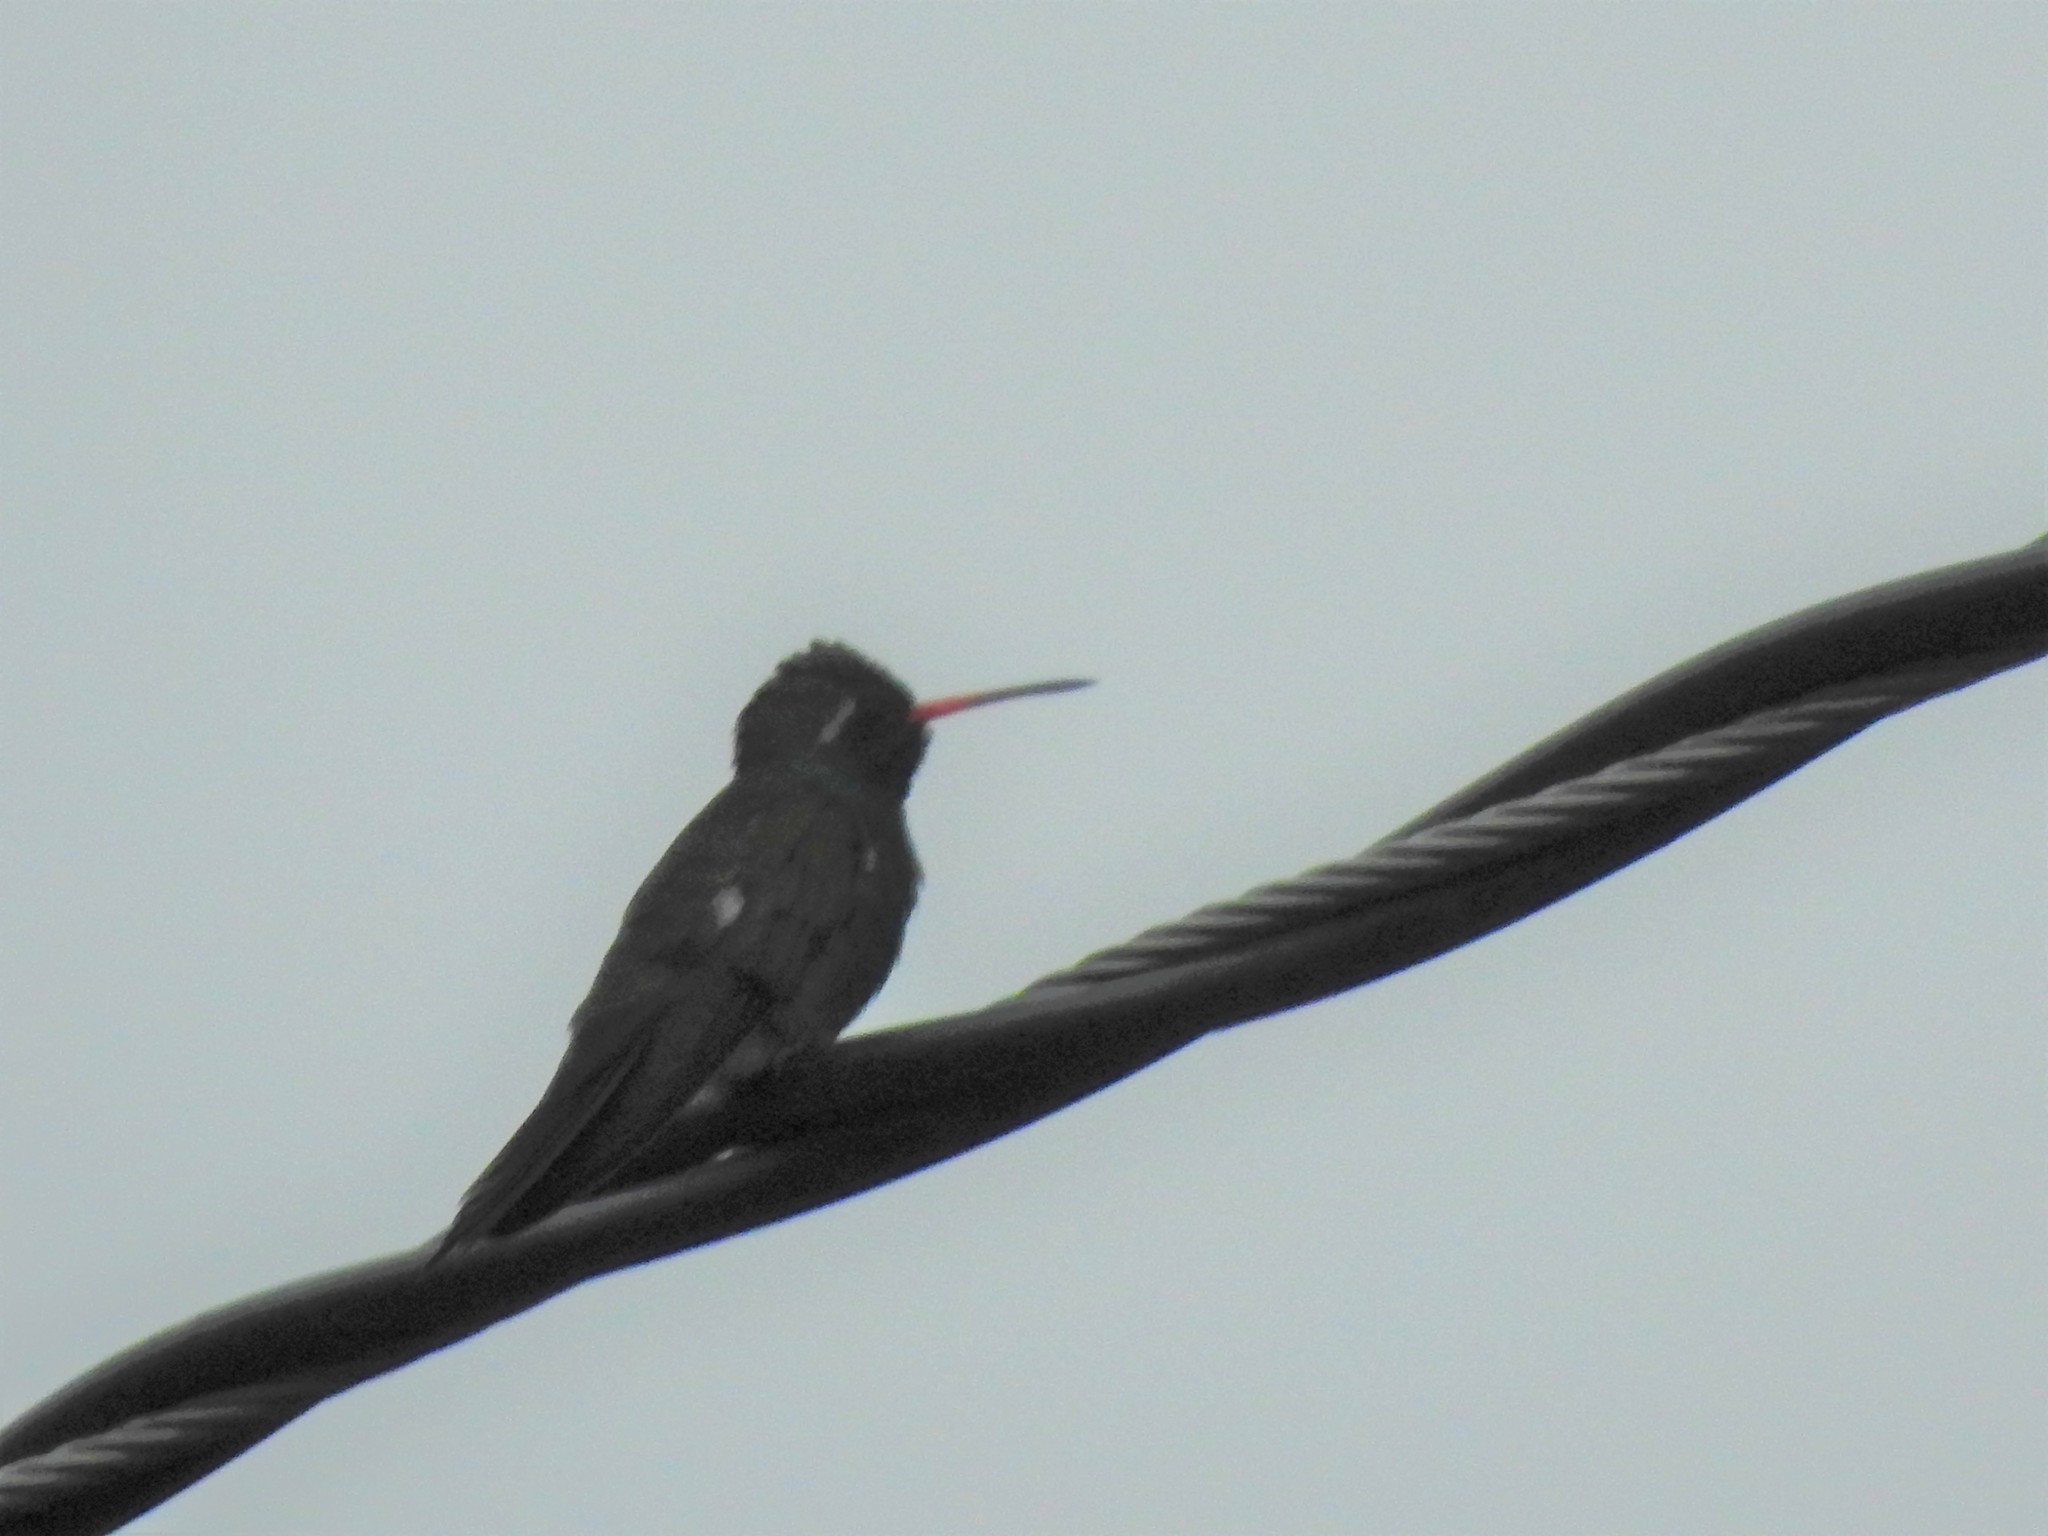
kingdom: Animalia
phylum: Chordata
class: Aves
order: Apodiformes
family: Trochilidae
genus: Cynanthus
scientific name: Cynanthus latirostris
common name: Broad-billed hummingbird
